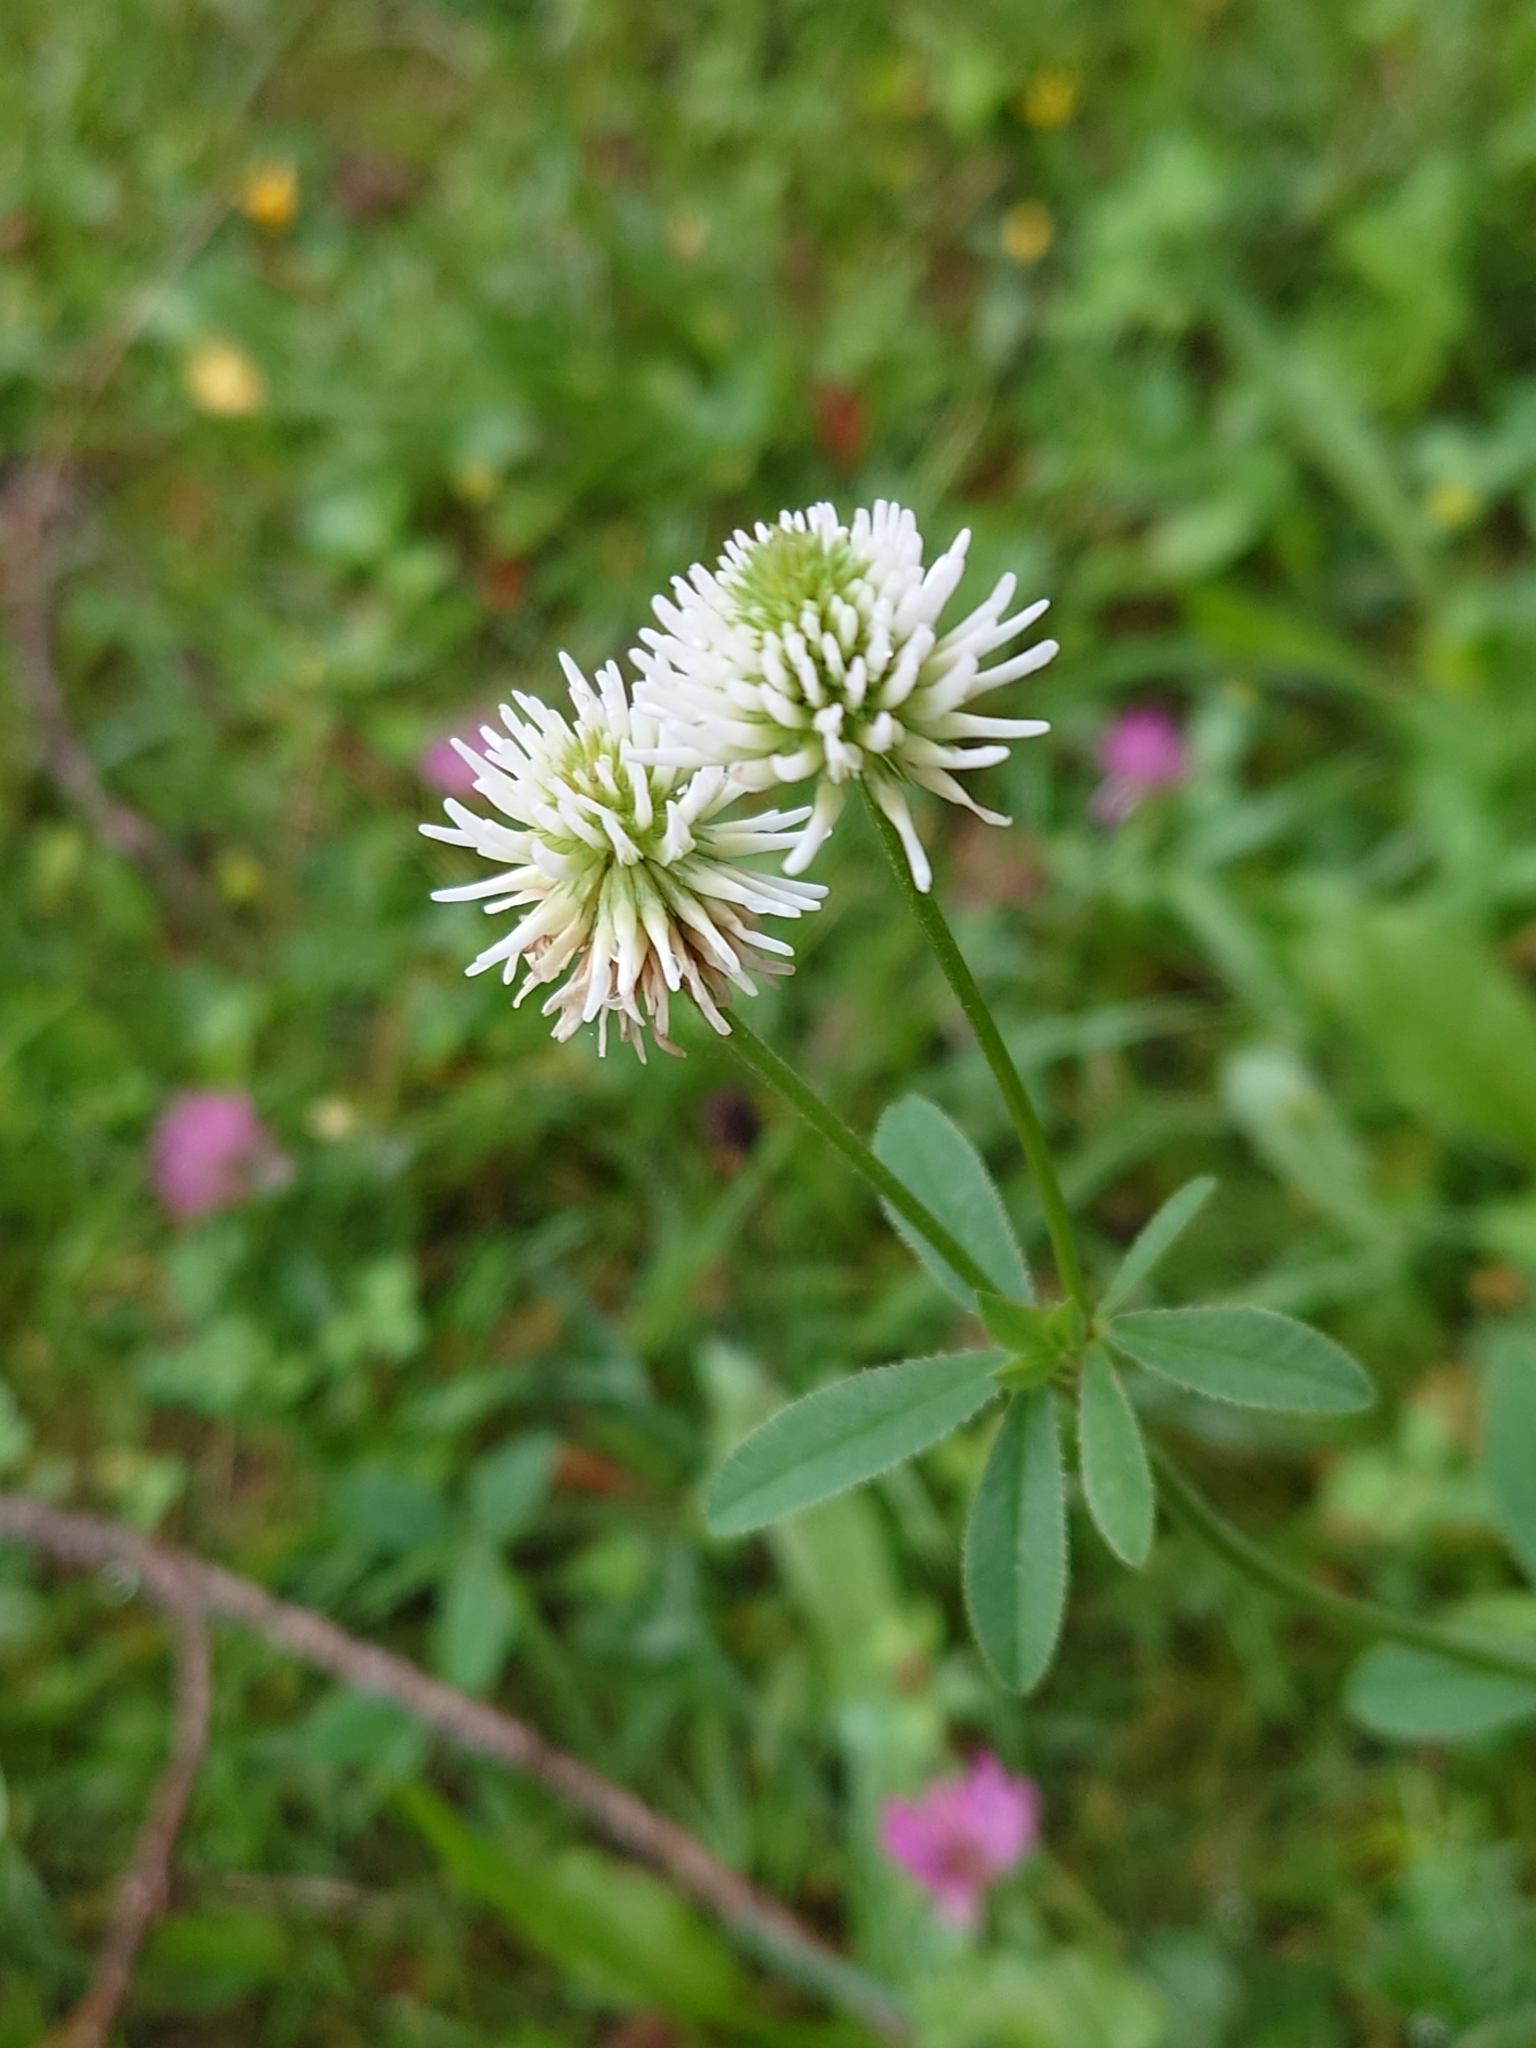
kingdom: Plantae
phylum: Tracheophyta
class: Magnoliopsida
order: Fabales
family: Fabaceae
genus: Trifolium
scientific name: Trifolium montanum
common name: Mountain clover
